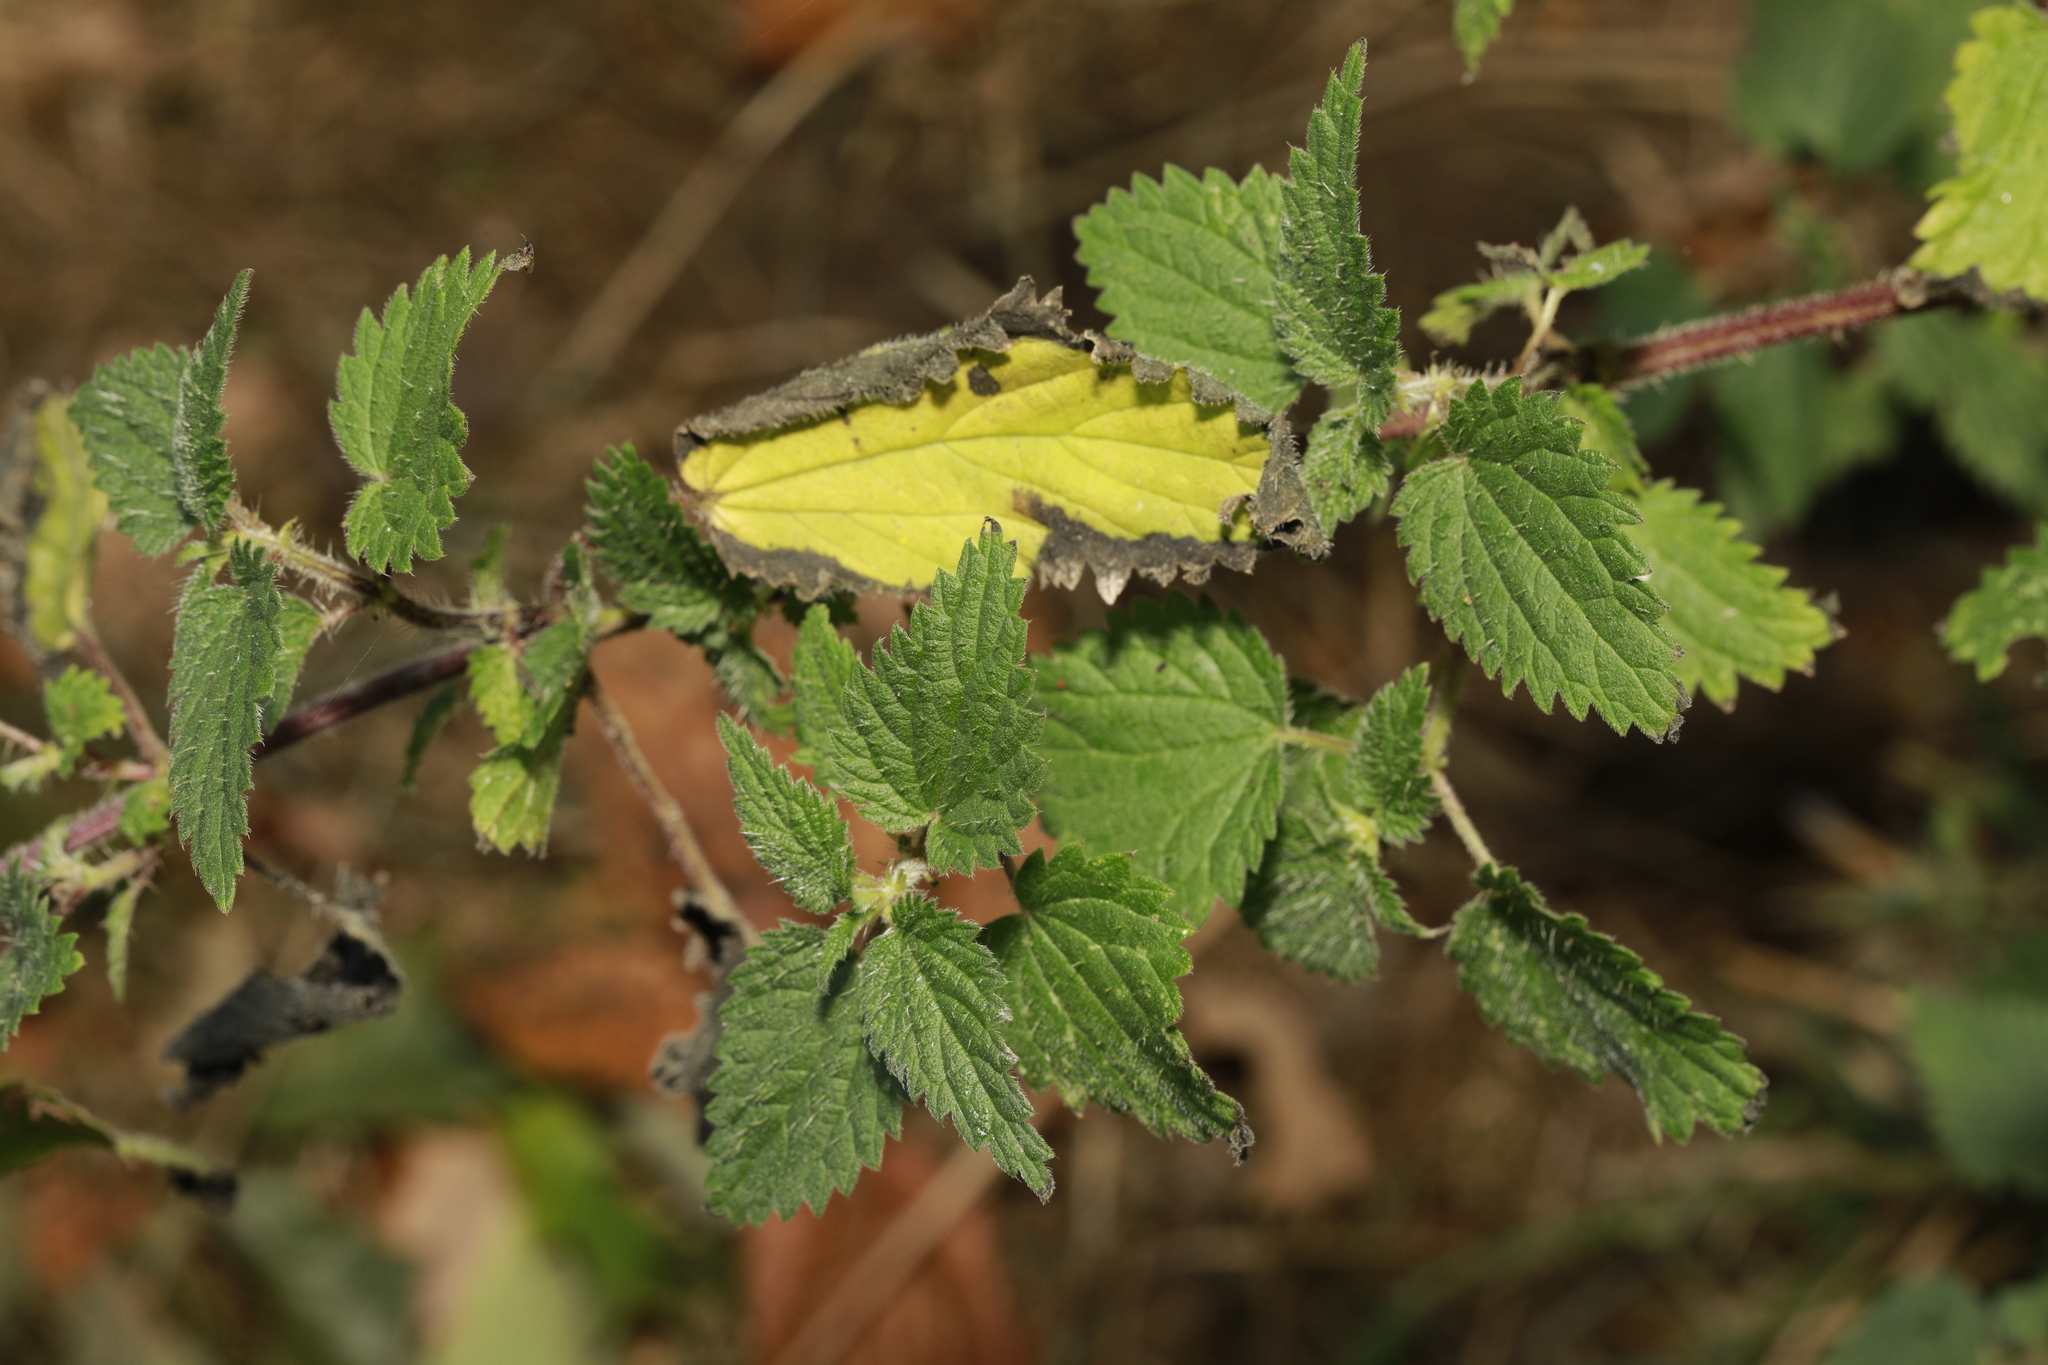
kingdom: Plantae
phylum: Tracheophyta
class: Magnoliopsida
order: Rosales
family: Urticaceae
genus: Urtica
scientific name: Urtica dioica
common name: Common nettle
